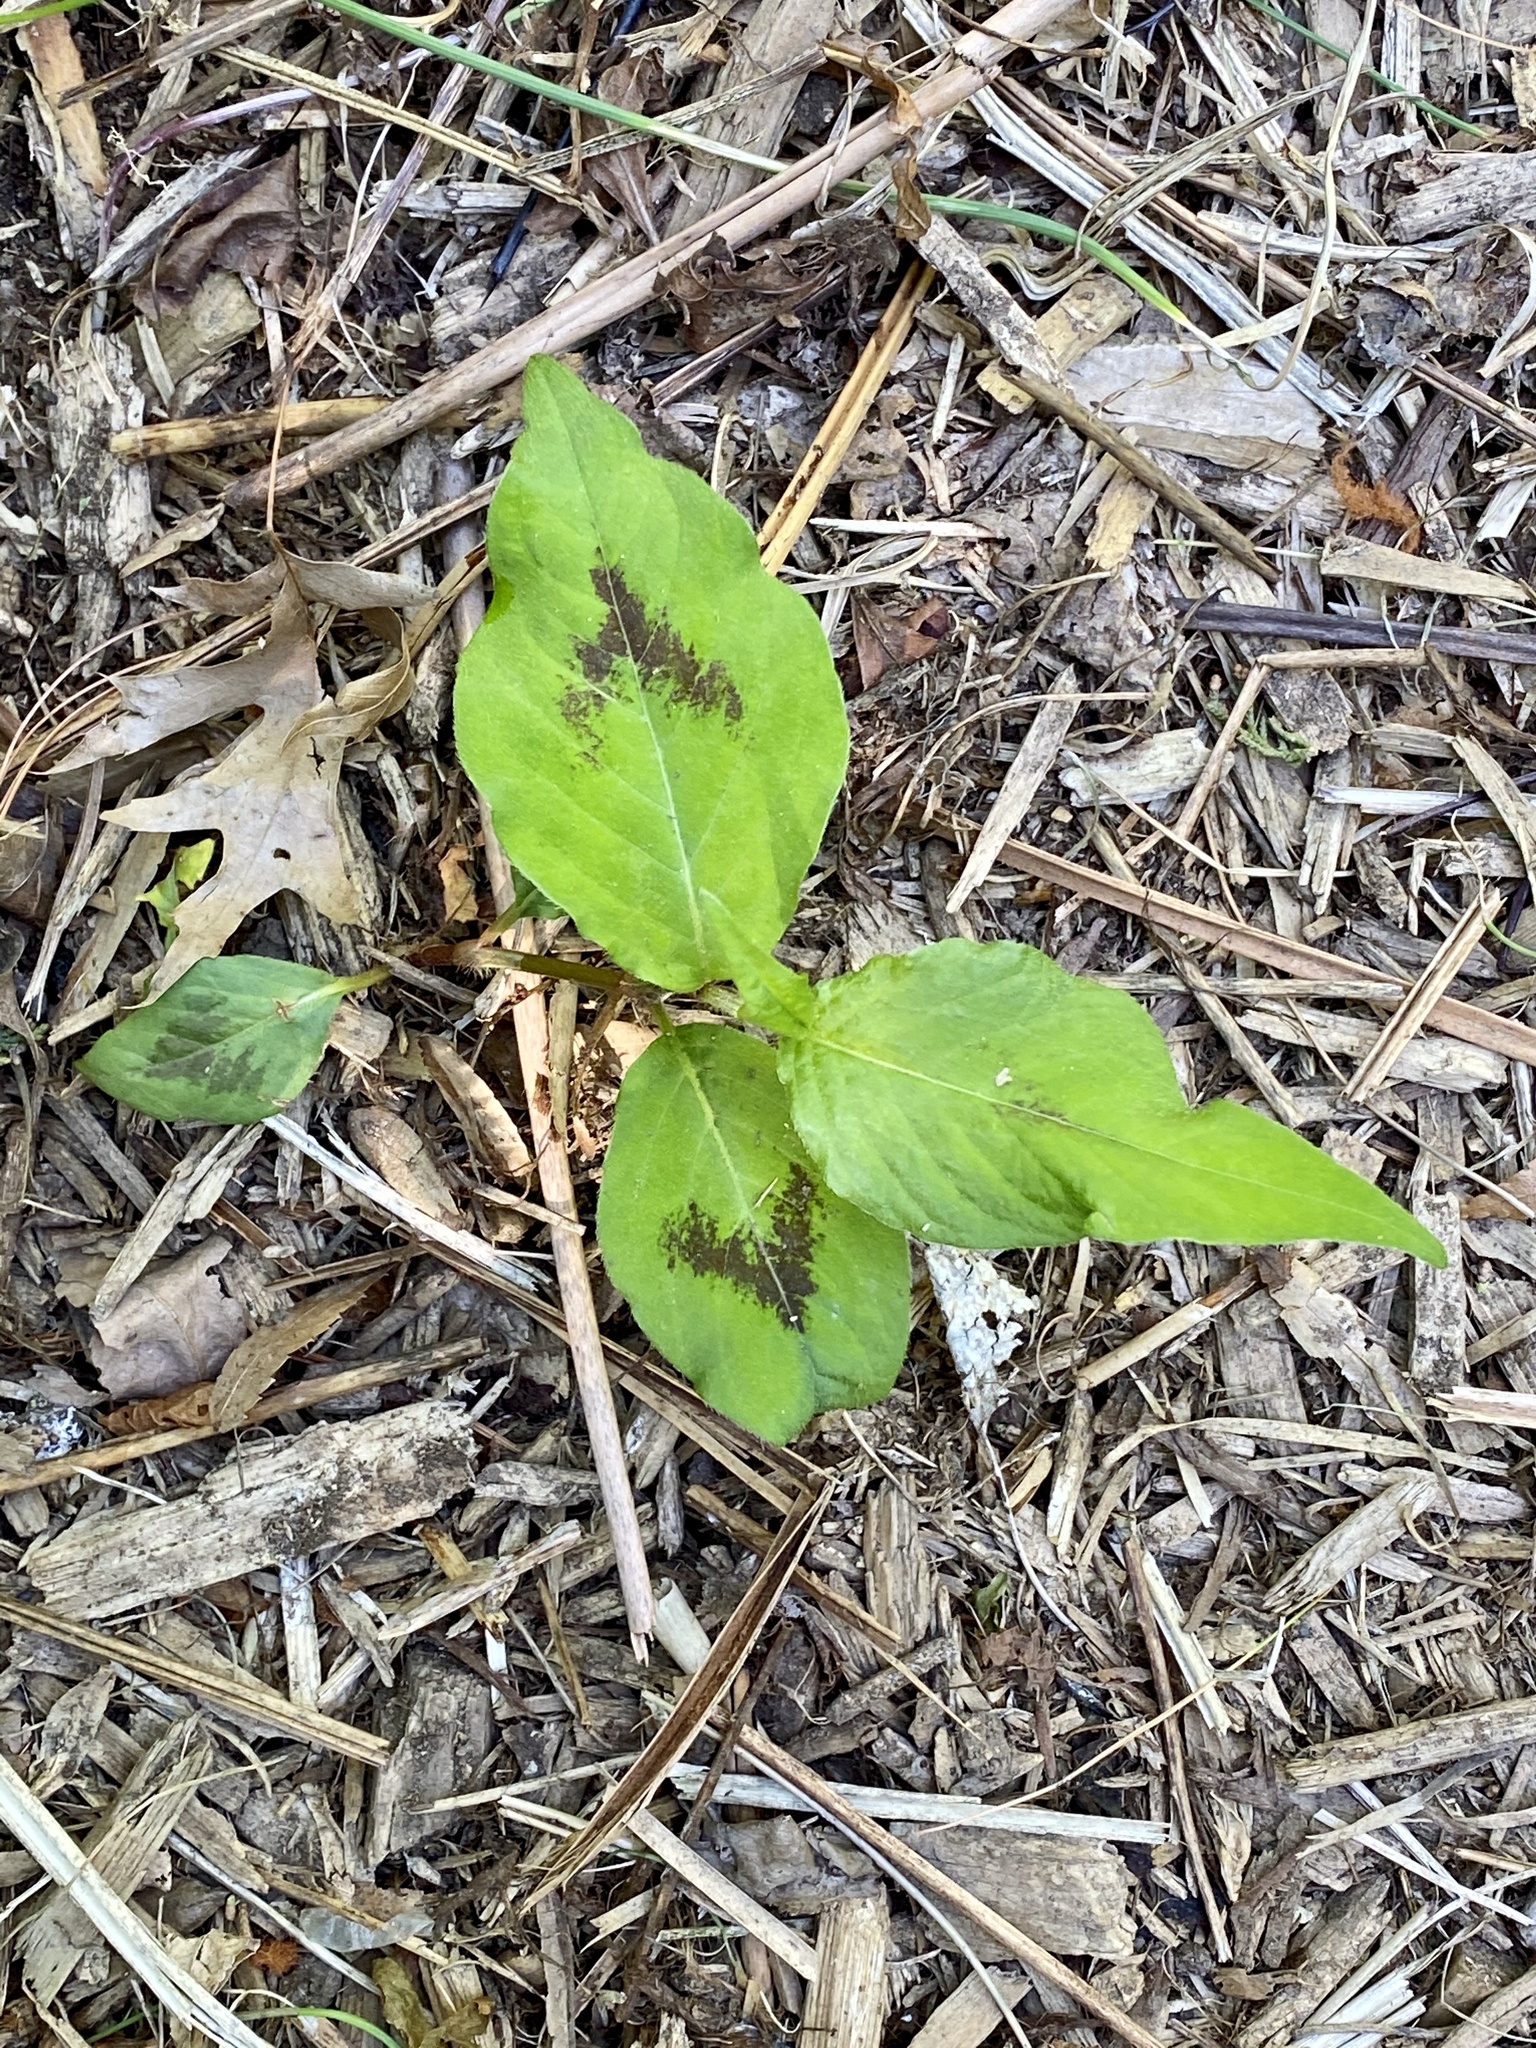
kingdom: Plantae
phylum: Tracheophyta
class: Magnoliopsida
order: Caryophyllales
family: Polygonaceae
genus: Persicaria
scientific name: Persicaria virginiana
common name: Jumpseed
